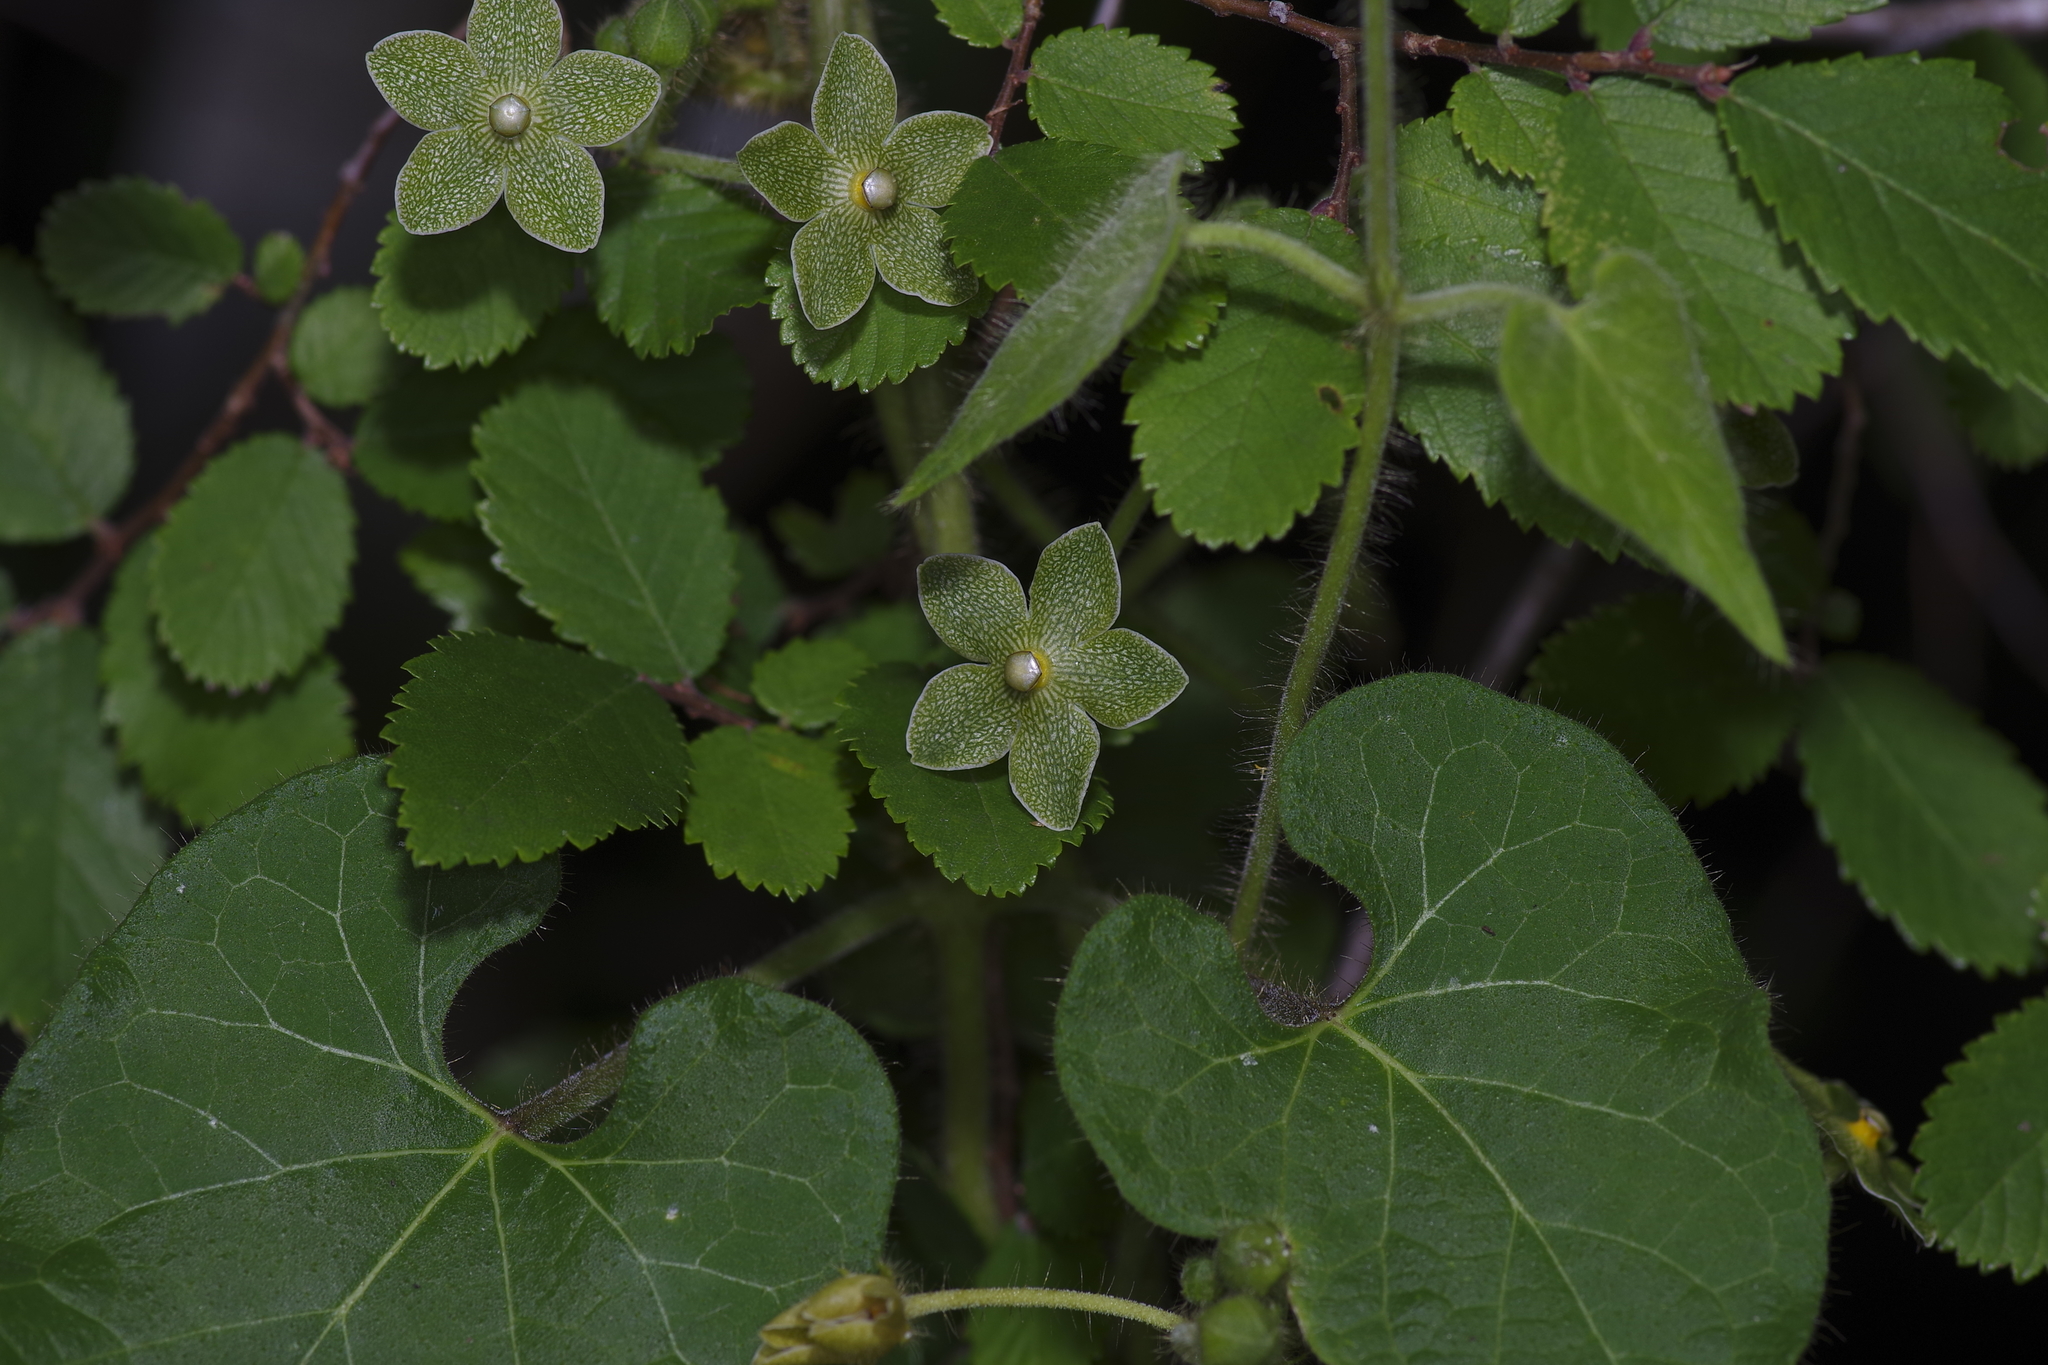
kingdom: Plantae
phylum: Tracheophyta
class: Magnoliopsida
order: Gentianales
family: Apocynaceae
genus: Dictyanthus
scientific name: Dictyanthus reticulatus
